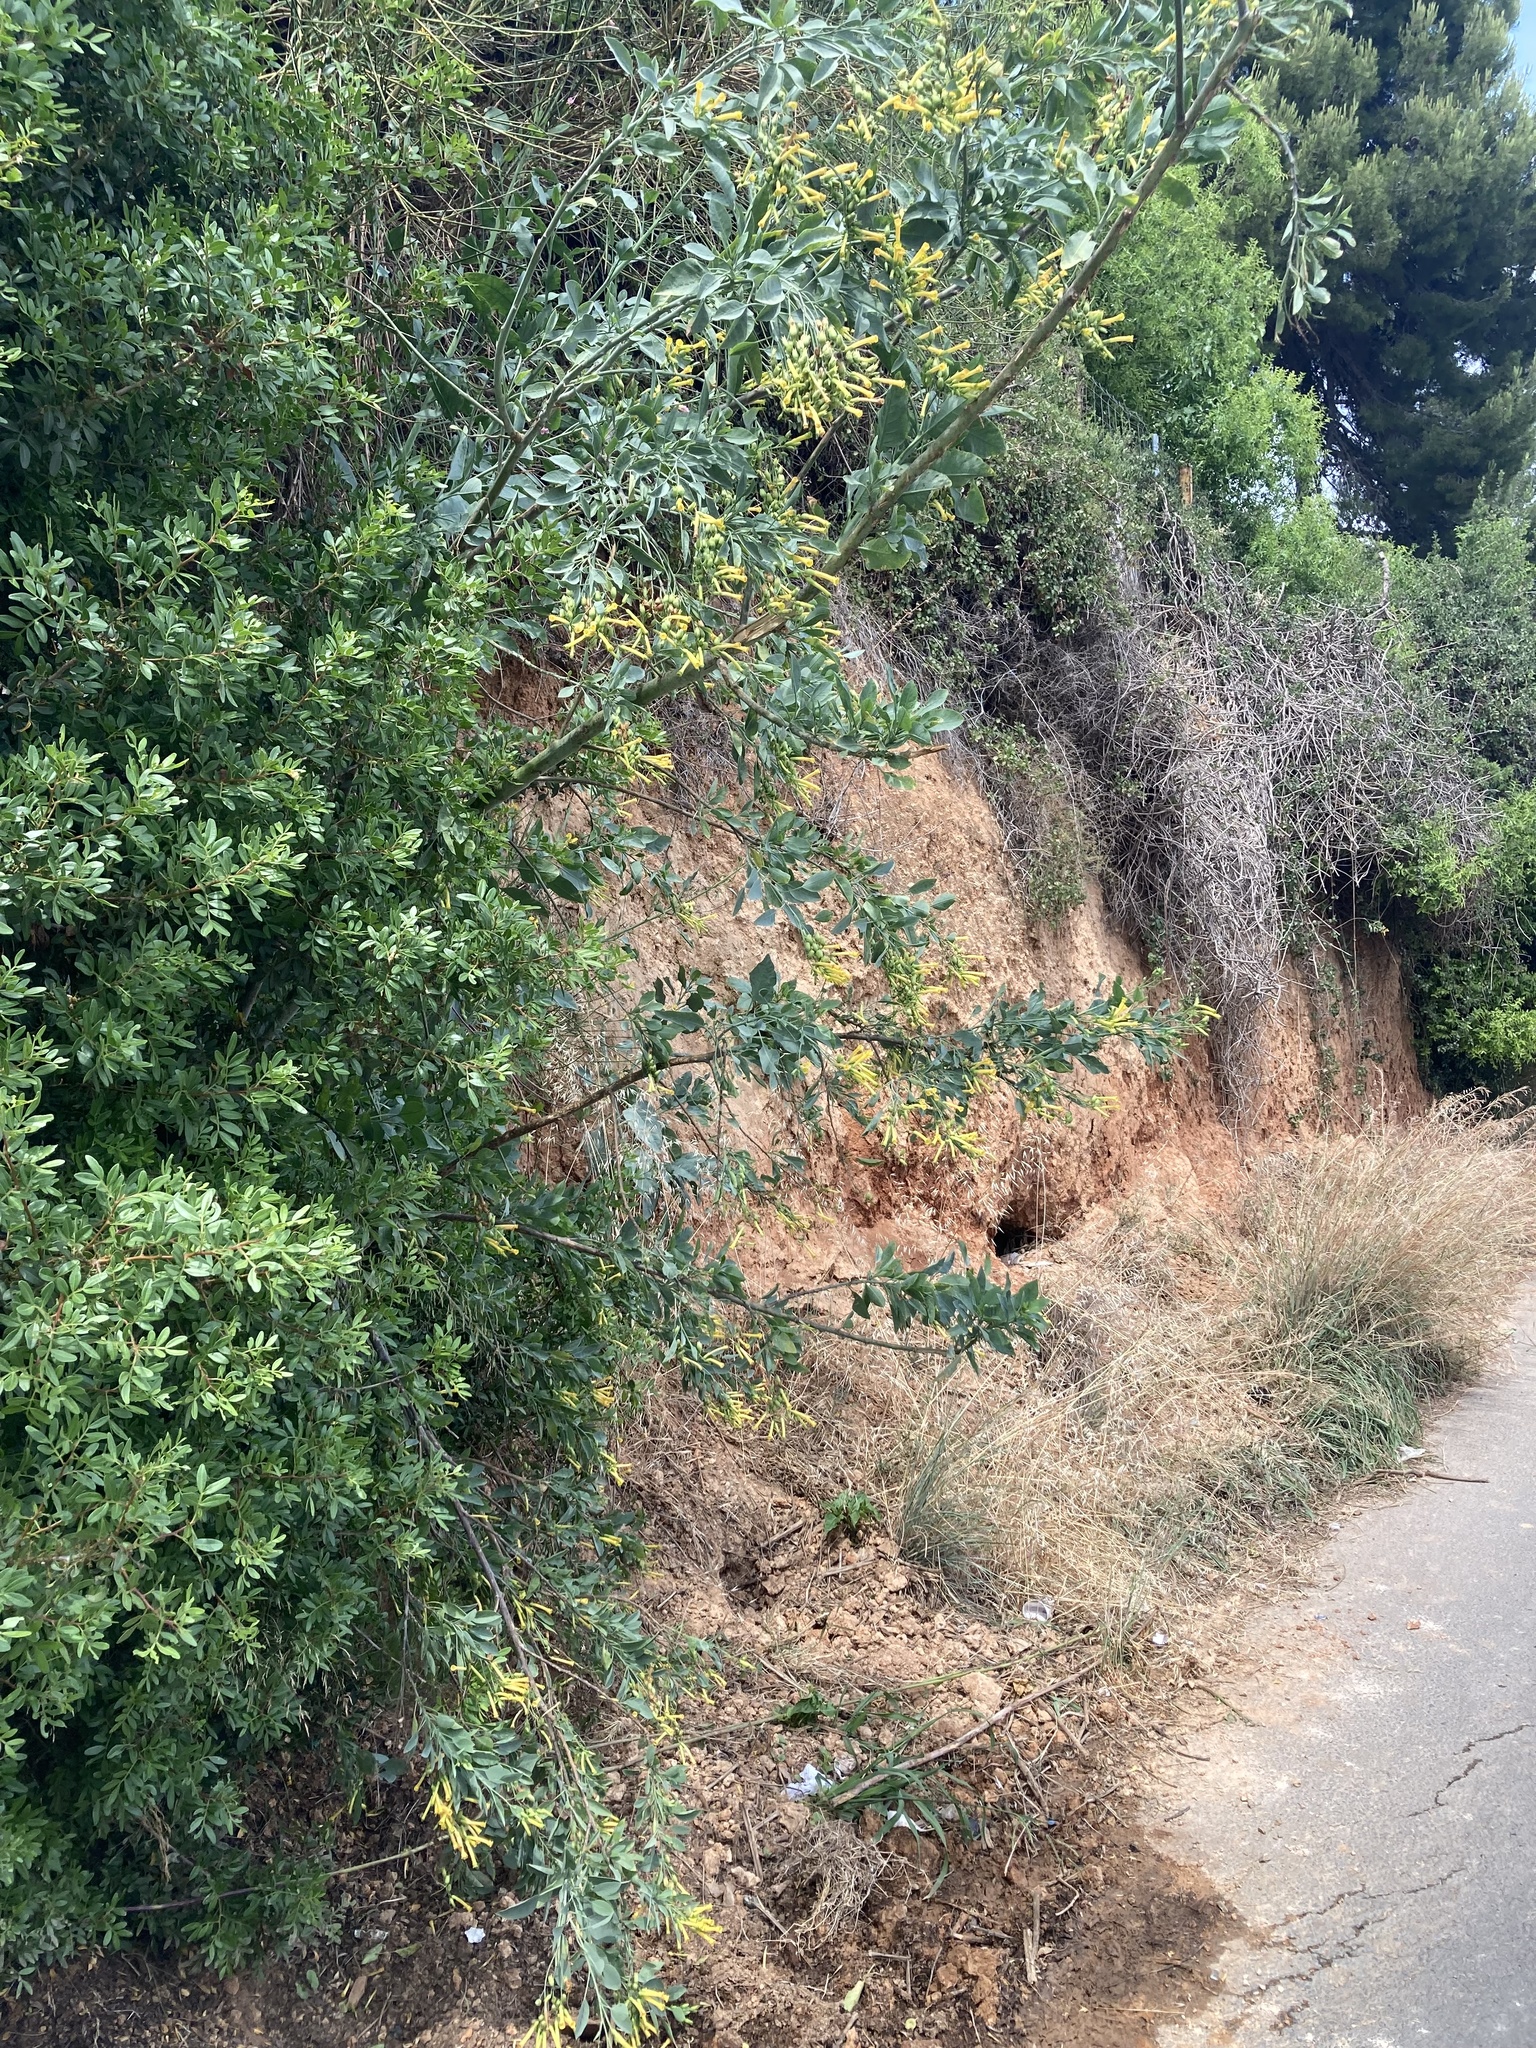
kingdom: Plantae
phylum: Tracheophyta
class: Magnoliopsida
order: Solanales
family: Solanaceae
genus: Nicotiana
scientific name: Nicotiana glauca
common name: Tree tobacco
